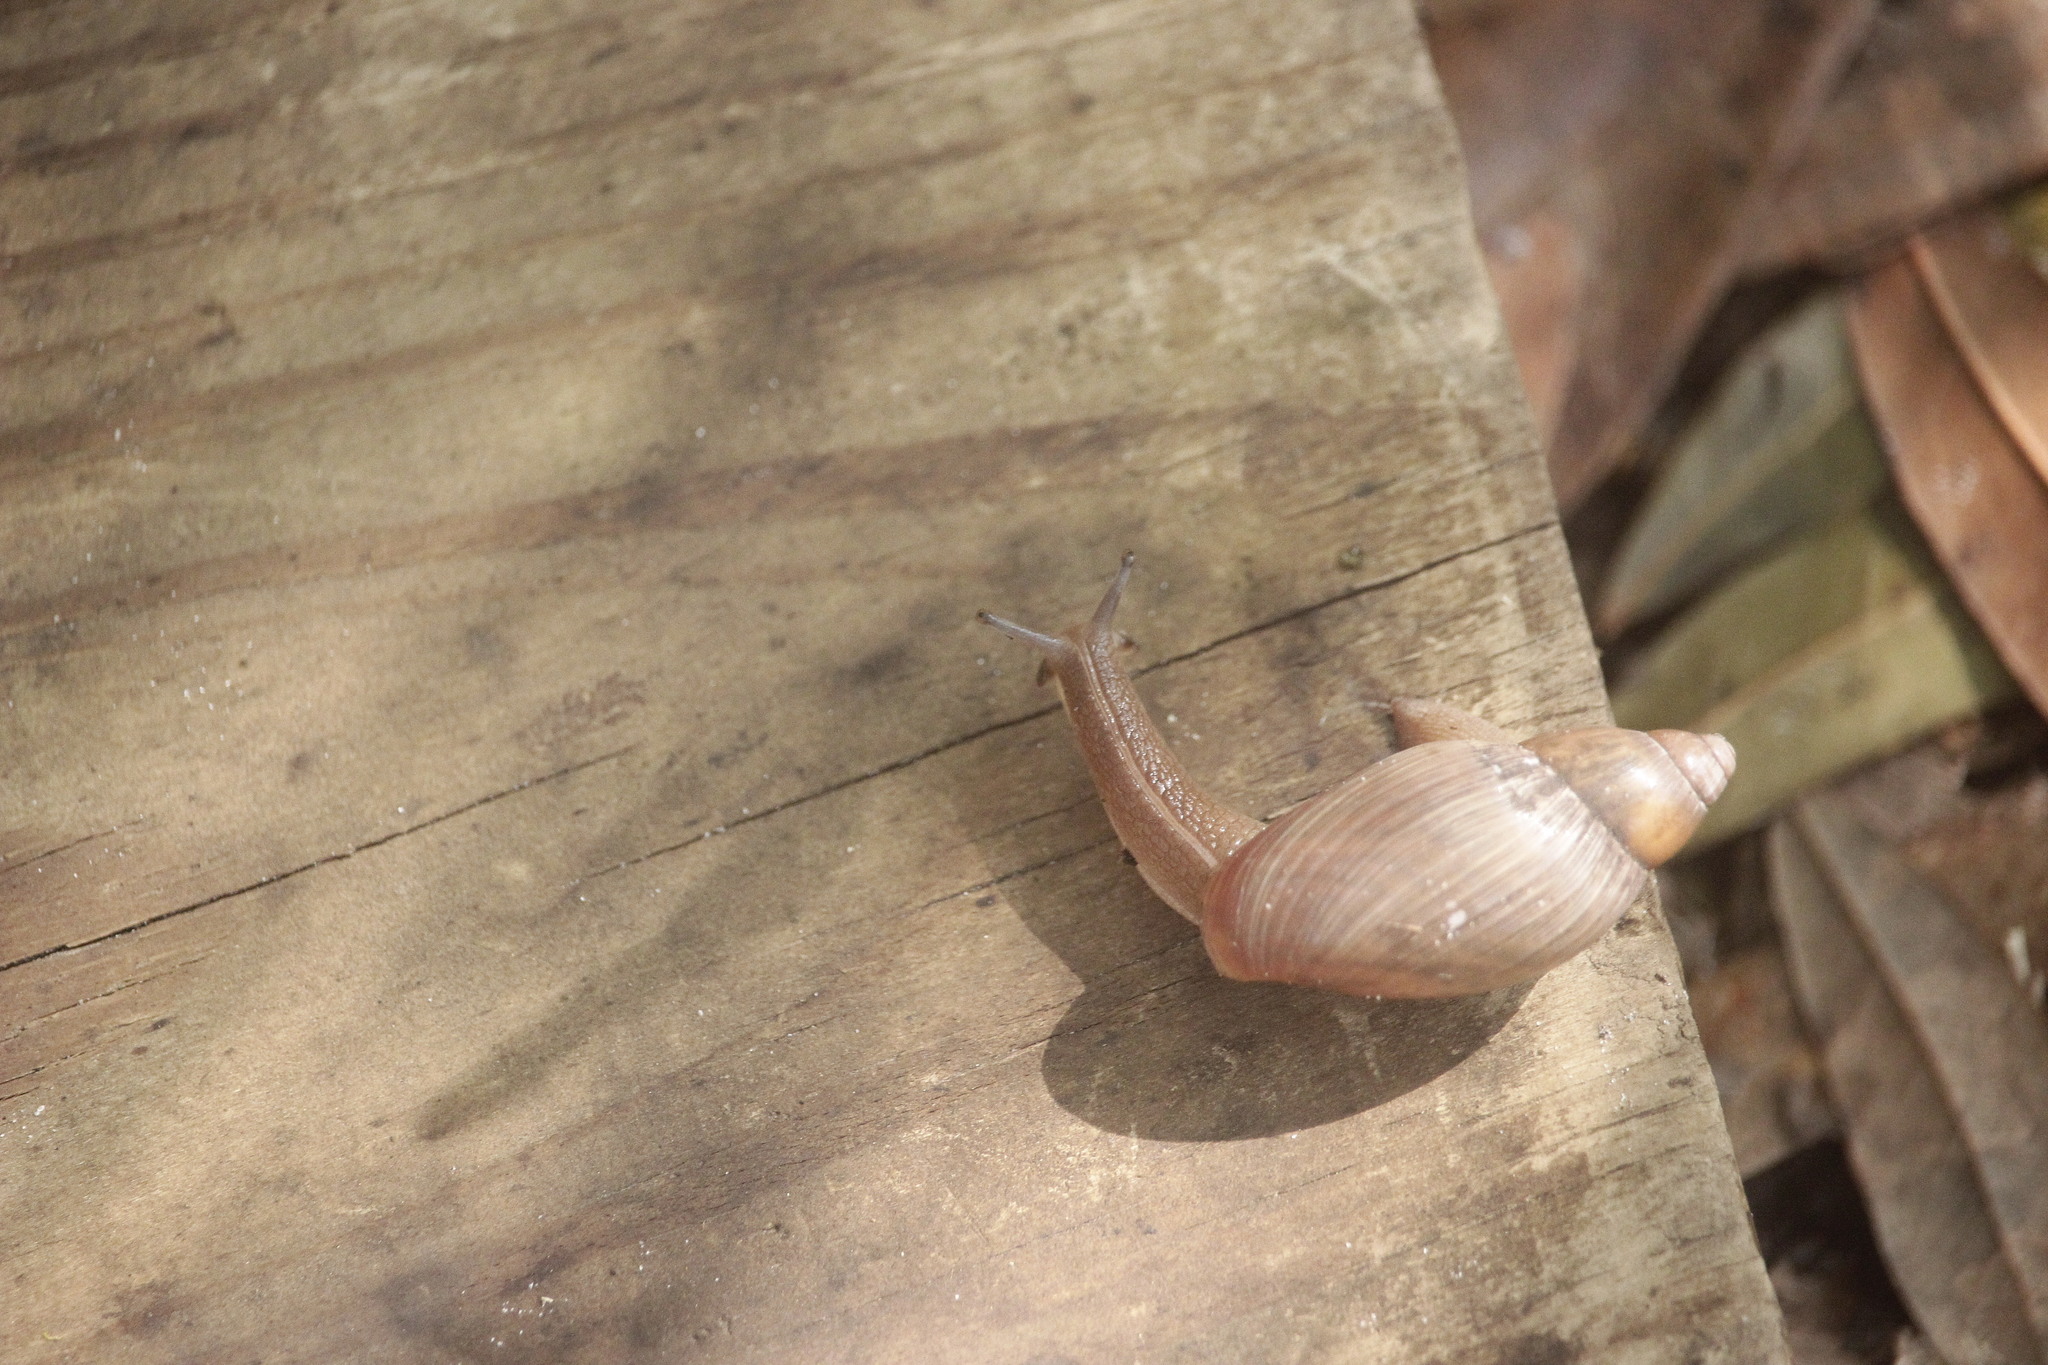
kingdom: Animalia
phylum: Mollusca
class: Gastropoda
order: Stylommatophora
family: Spiraxidae
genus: Euglandina
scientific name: Euglandina rosea
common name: Rosy wolfsnail
